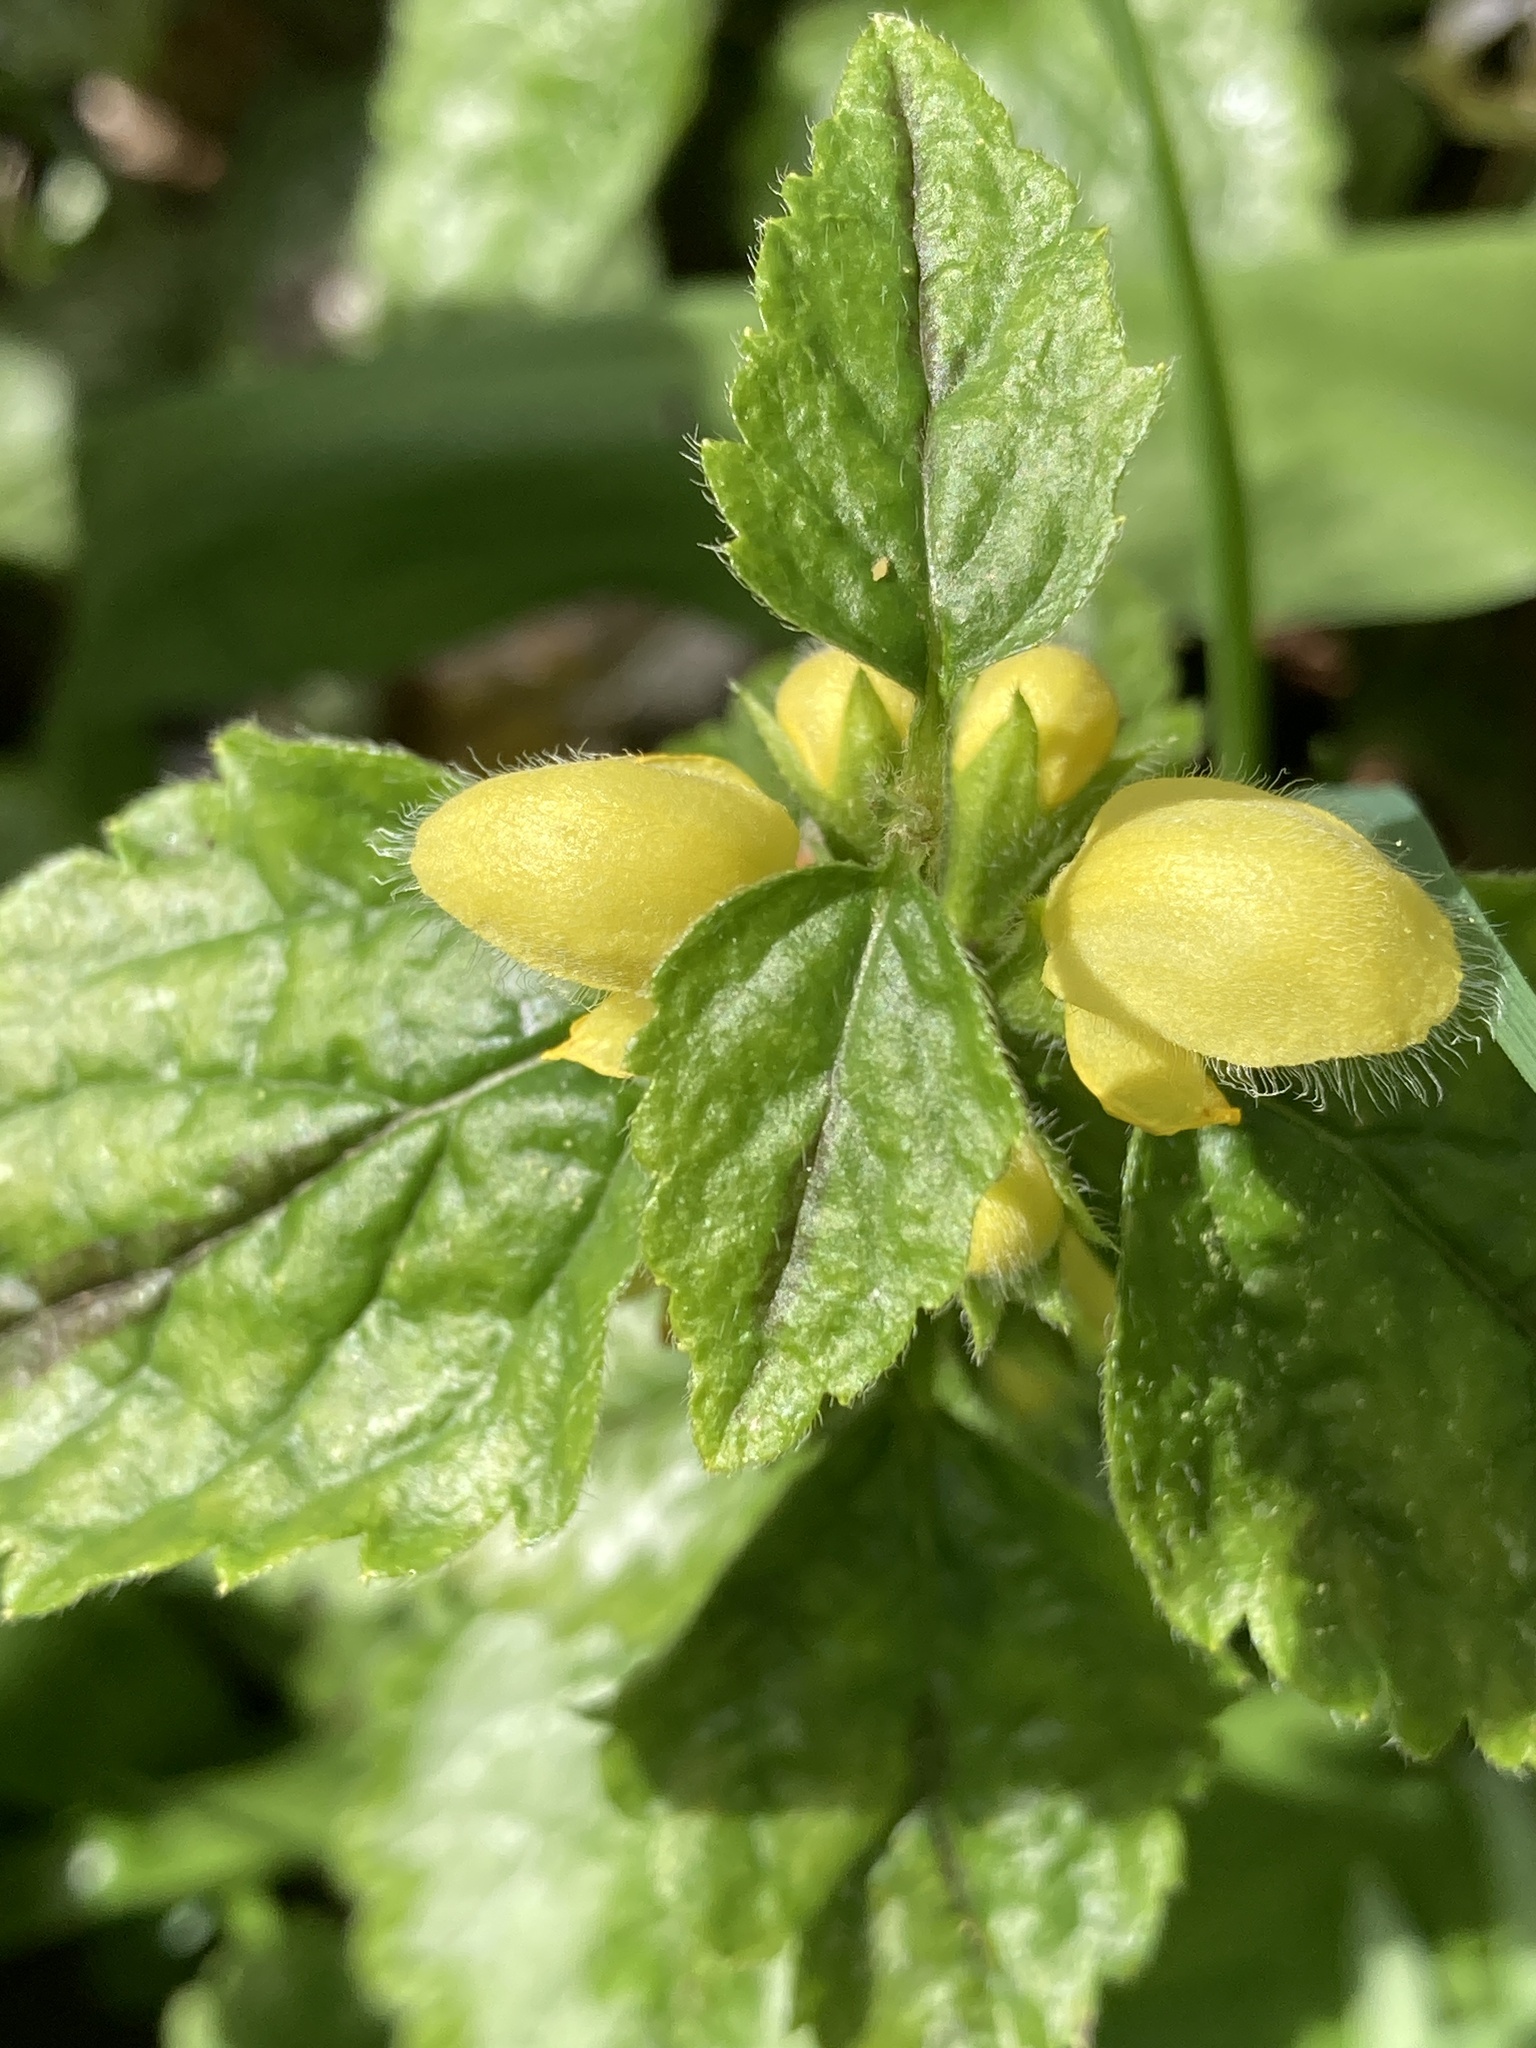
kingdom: Plantae
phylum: Tracheophyta
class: Magnoliopsida
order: Lamiales
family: Lamiaceae
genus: Lamium
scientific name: Lamium galeobdolon
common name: Yellow archangel
